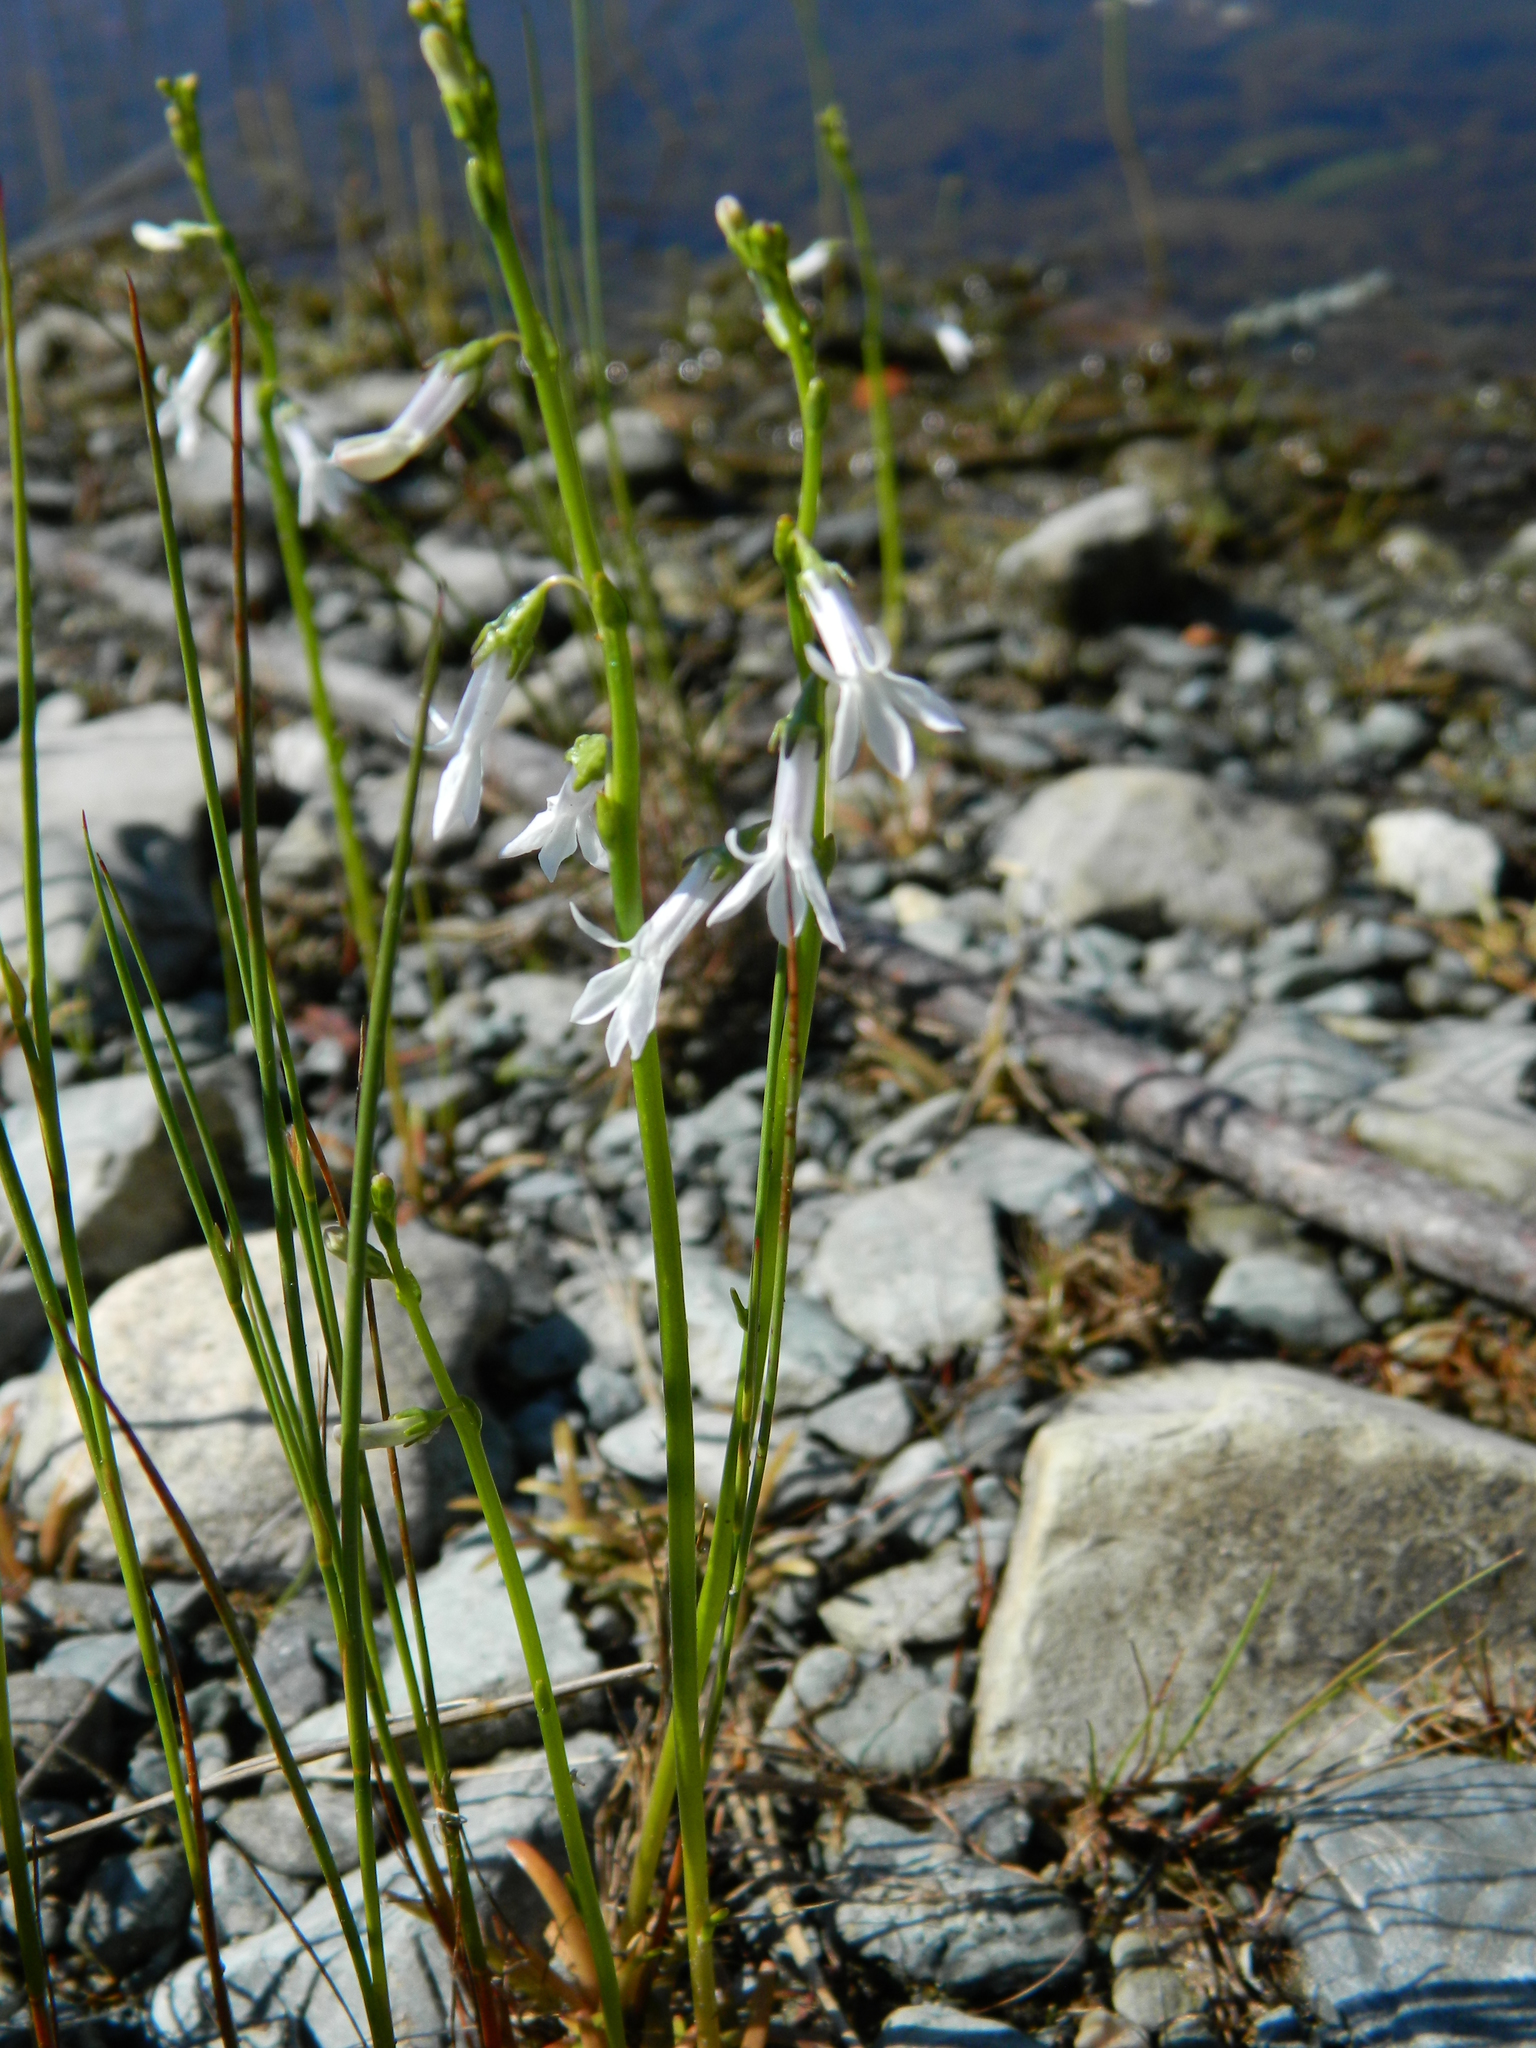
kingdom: Plantae
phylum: Tracheophyta
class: Magnoliopsida
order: Asterales
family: Campanulaceae
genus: Lobelia
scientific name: Lobelia dortmanna
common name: Water lobelia
